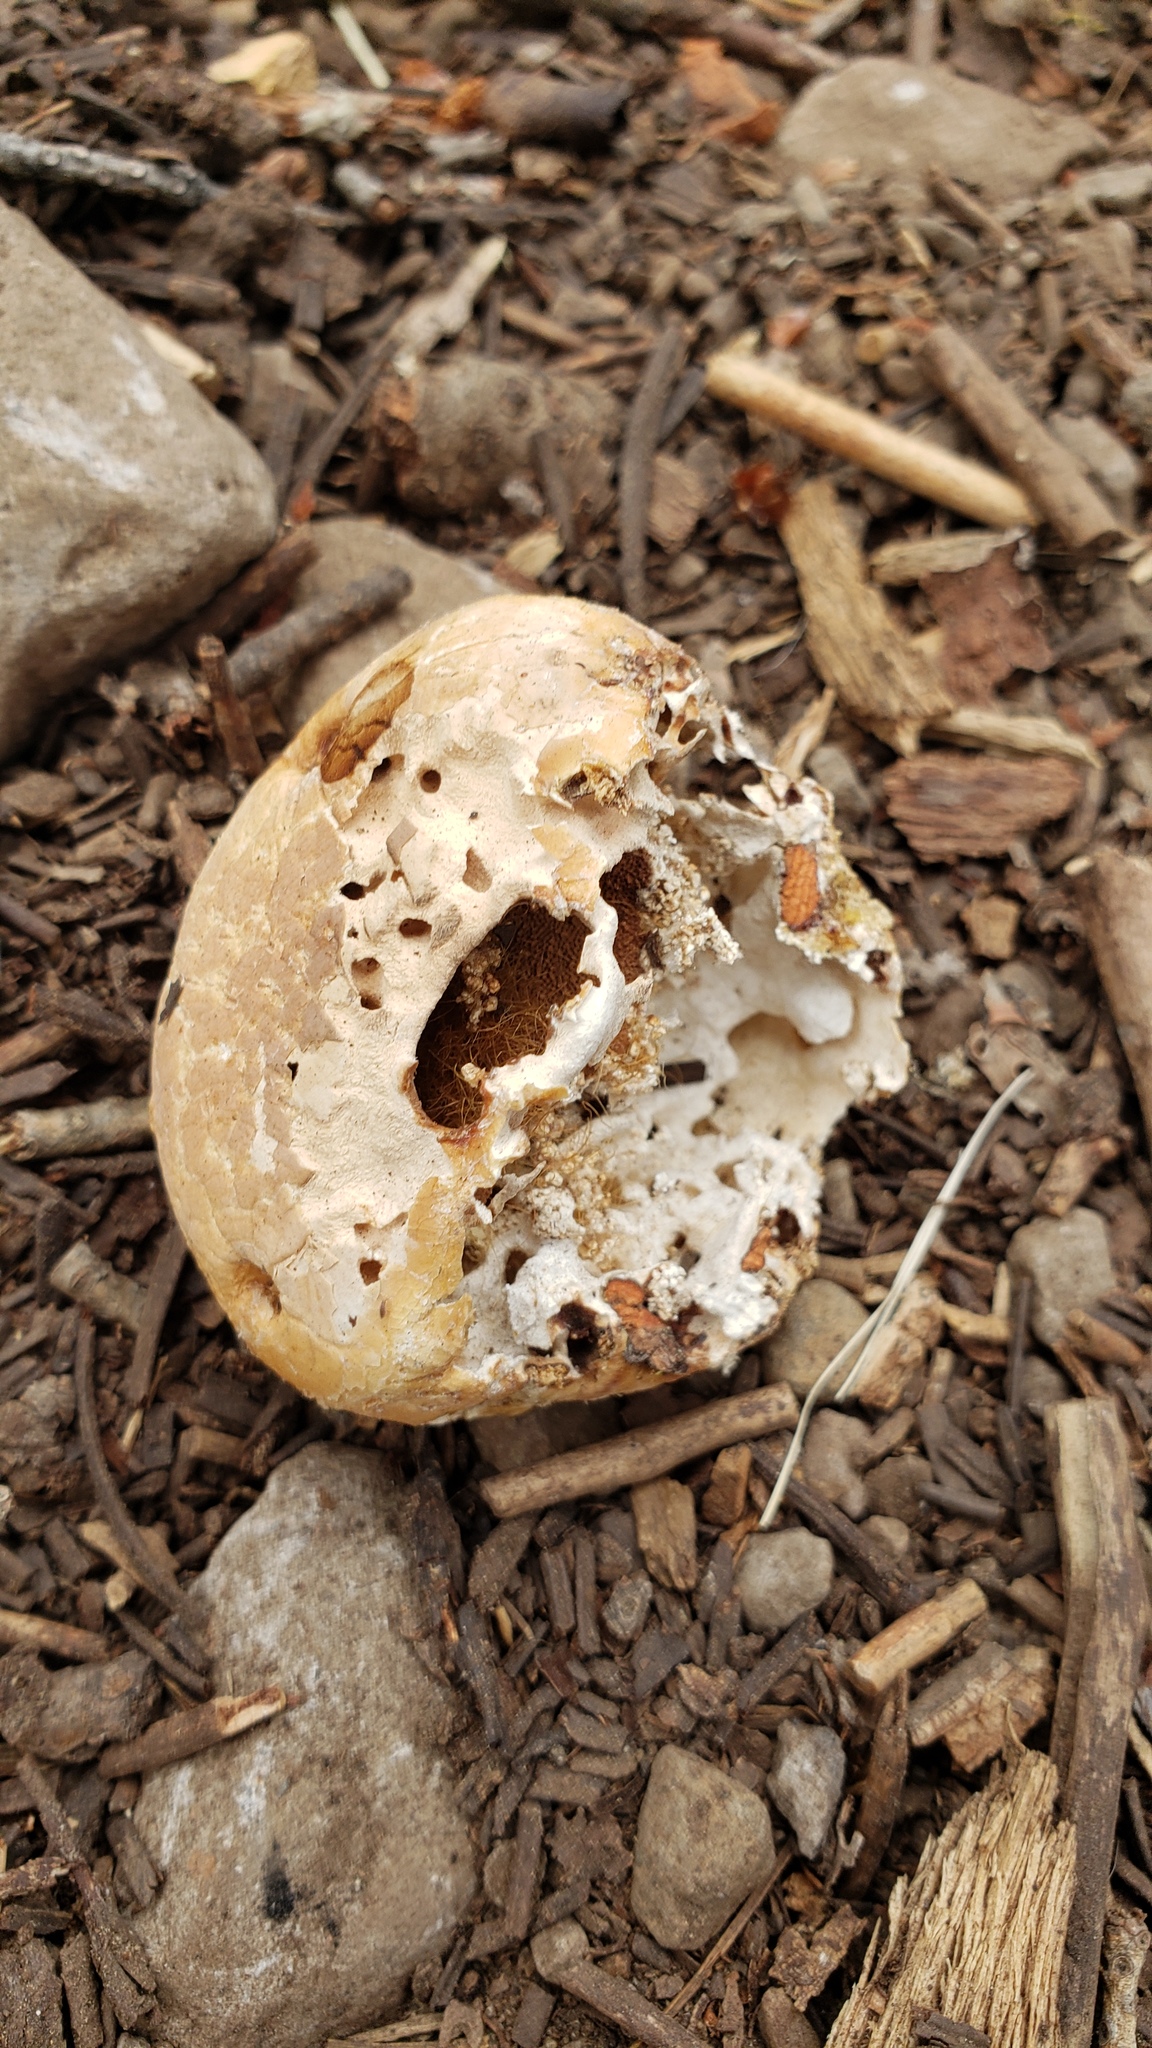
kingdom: Fungi
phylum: Basidiomycota
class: Agaricomycetes
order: Polyporales
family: Polyporaceae
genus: Cryptoporus
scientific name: Cryptoporus volvatus
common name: Veiled polypore
